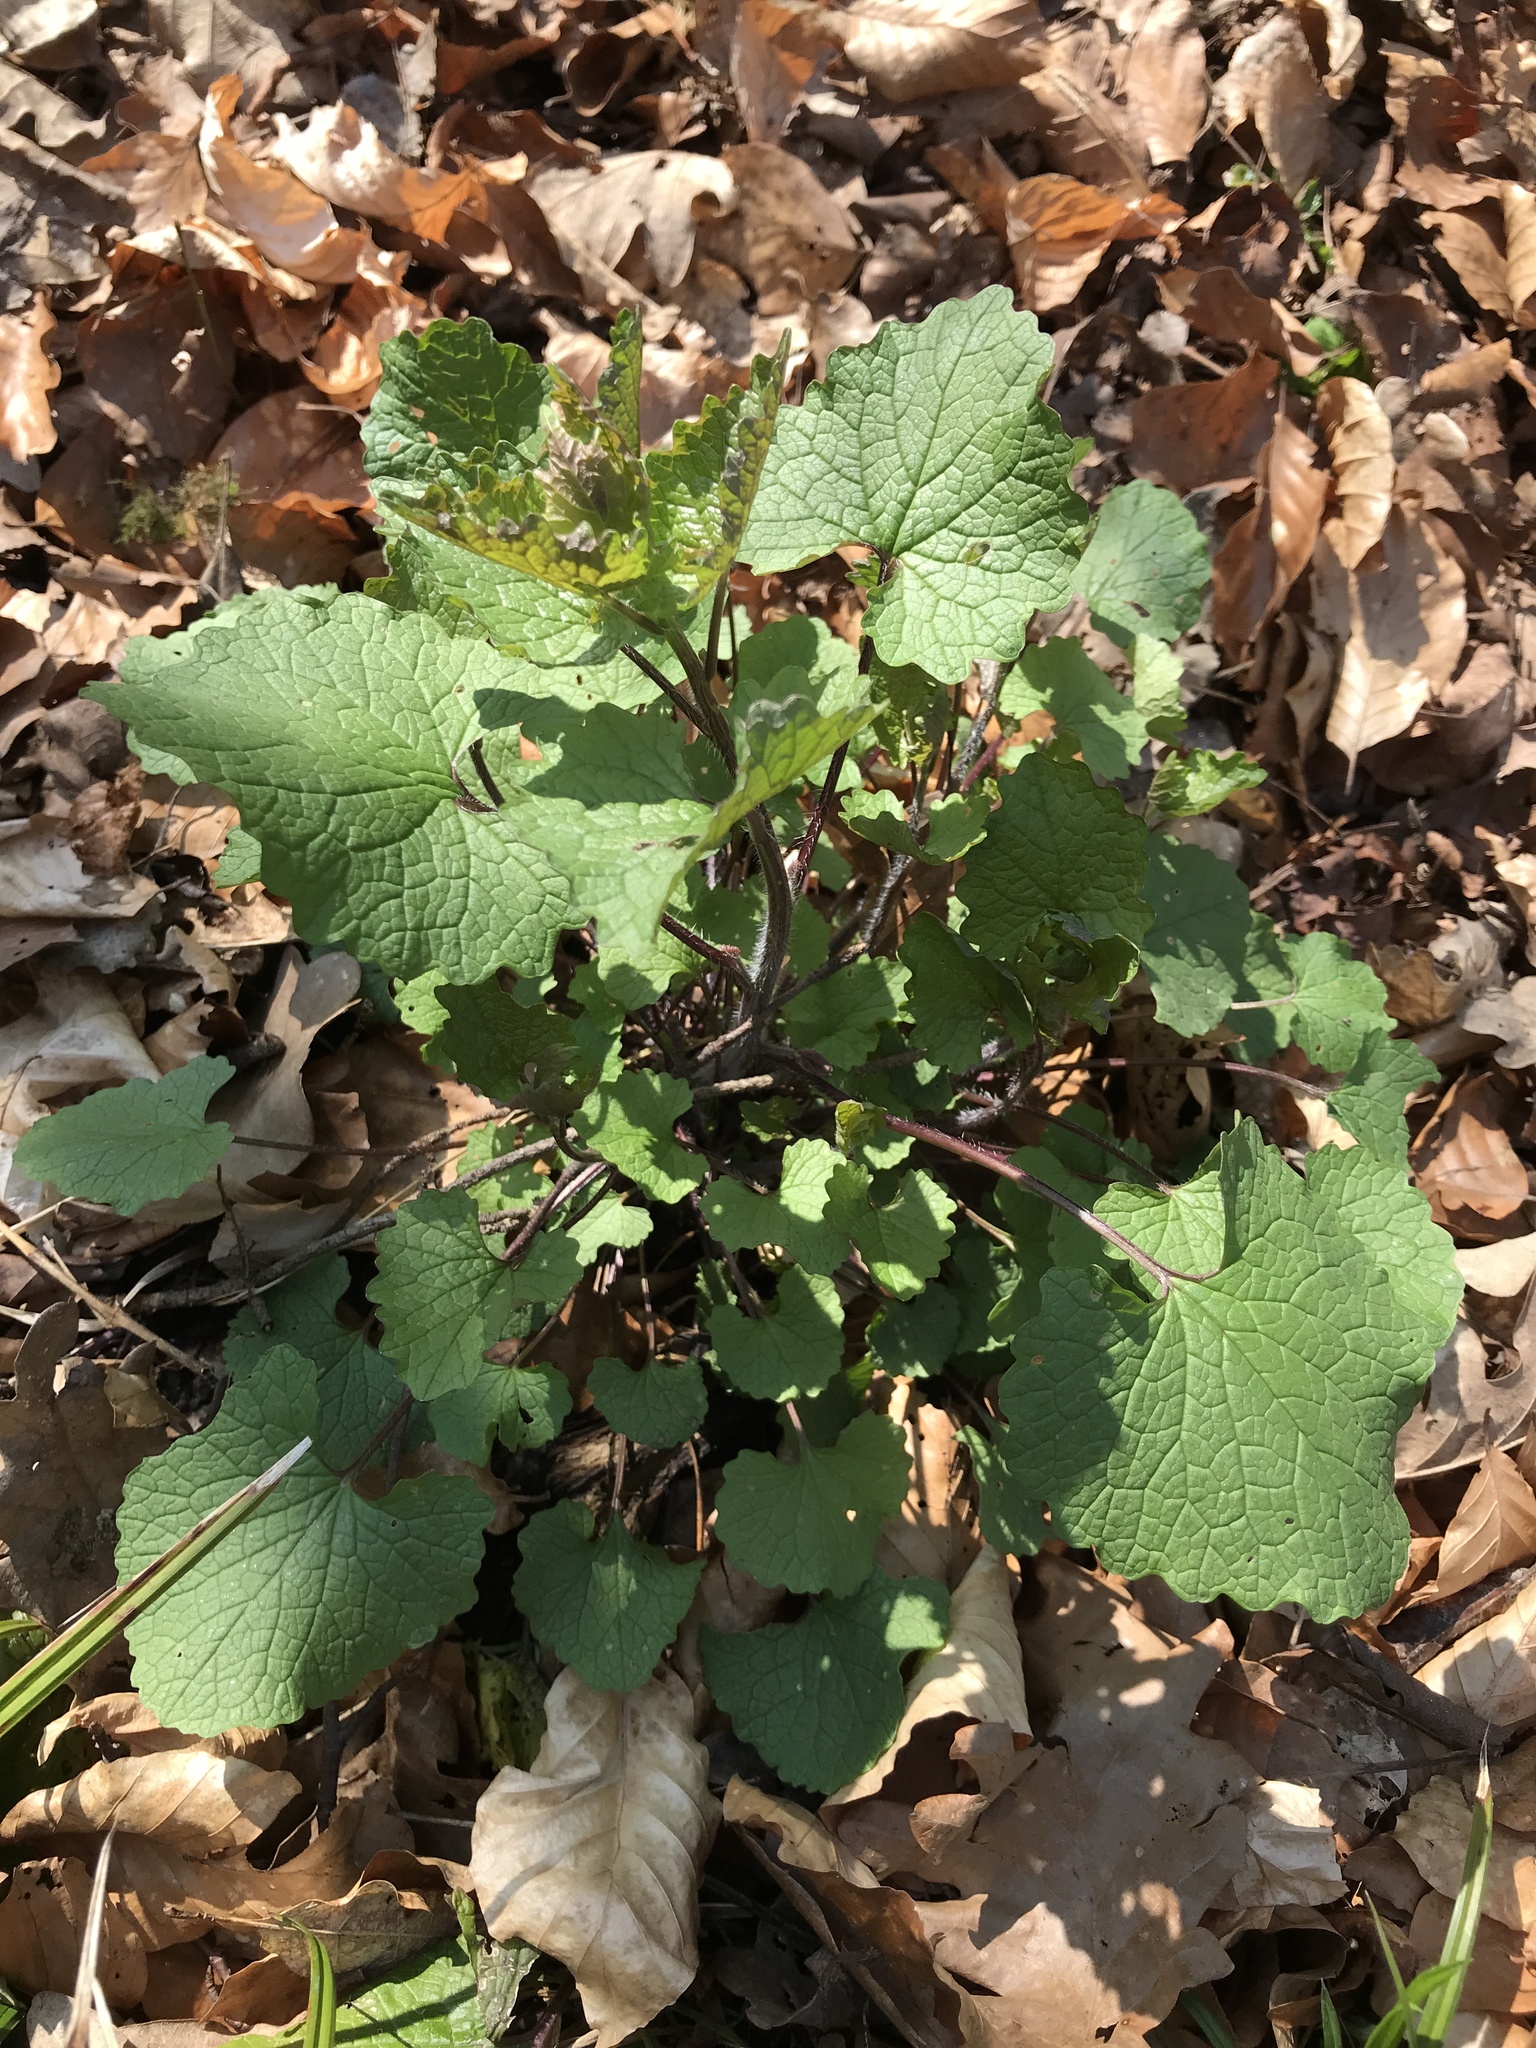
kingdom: Plantae
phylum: Tracheophyta
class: Magnoliopsida
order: Brassicales
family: Brassicaceae
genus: Alliaria
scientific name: Alliaria petiolata
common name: Garlic mustard
